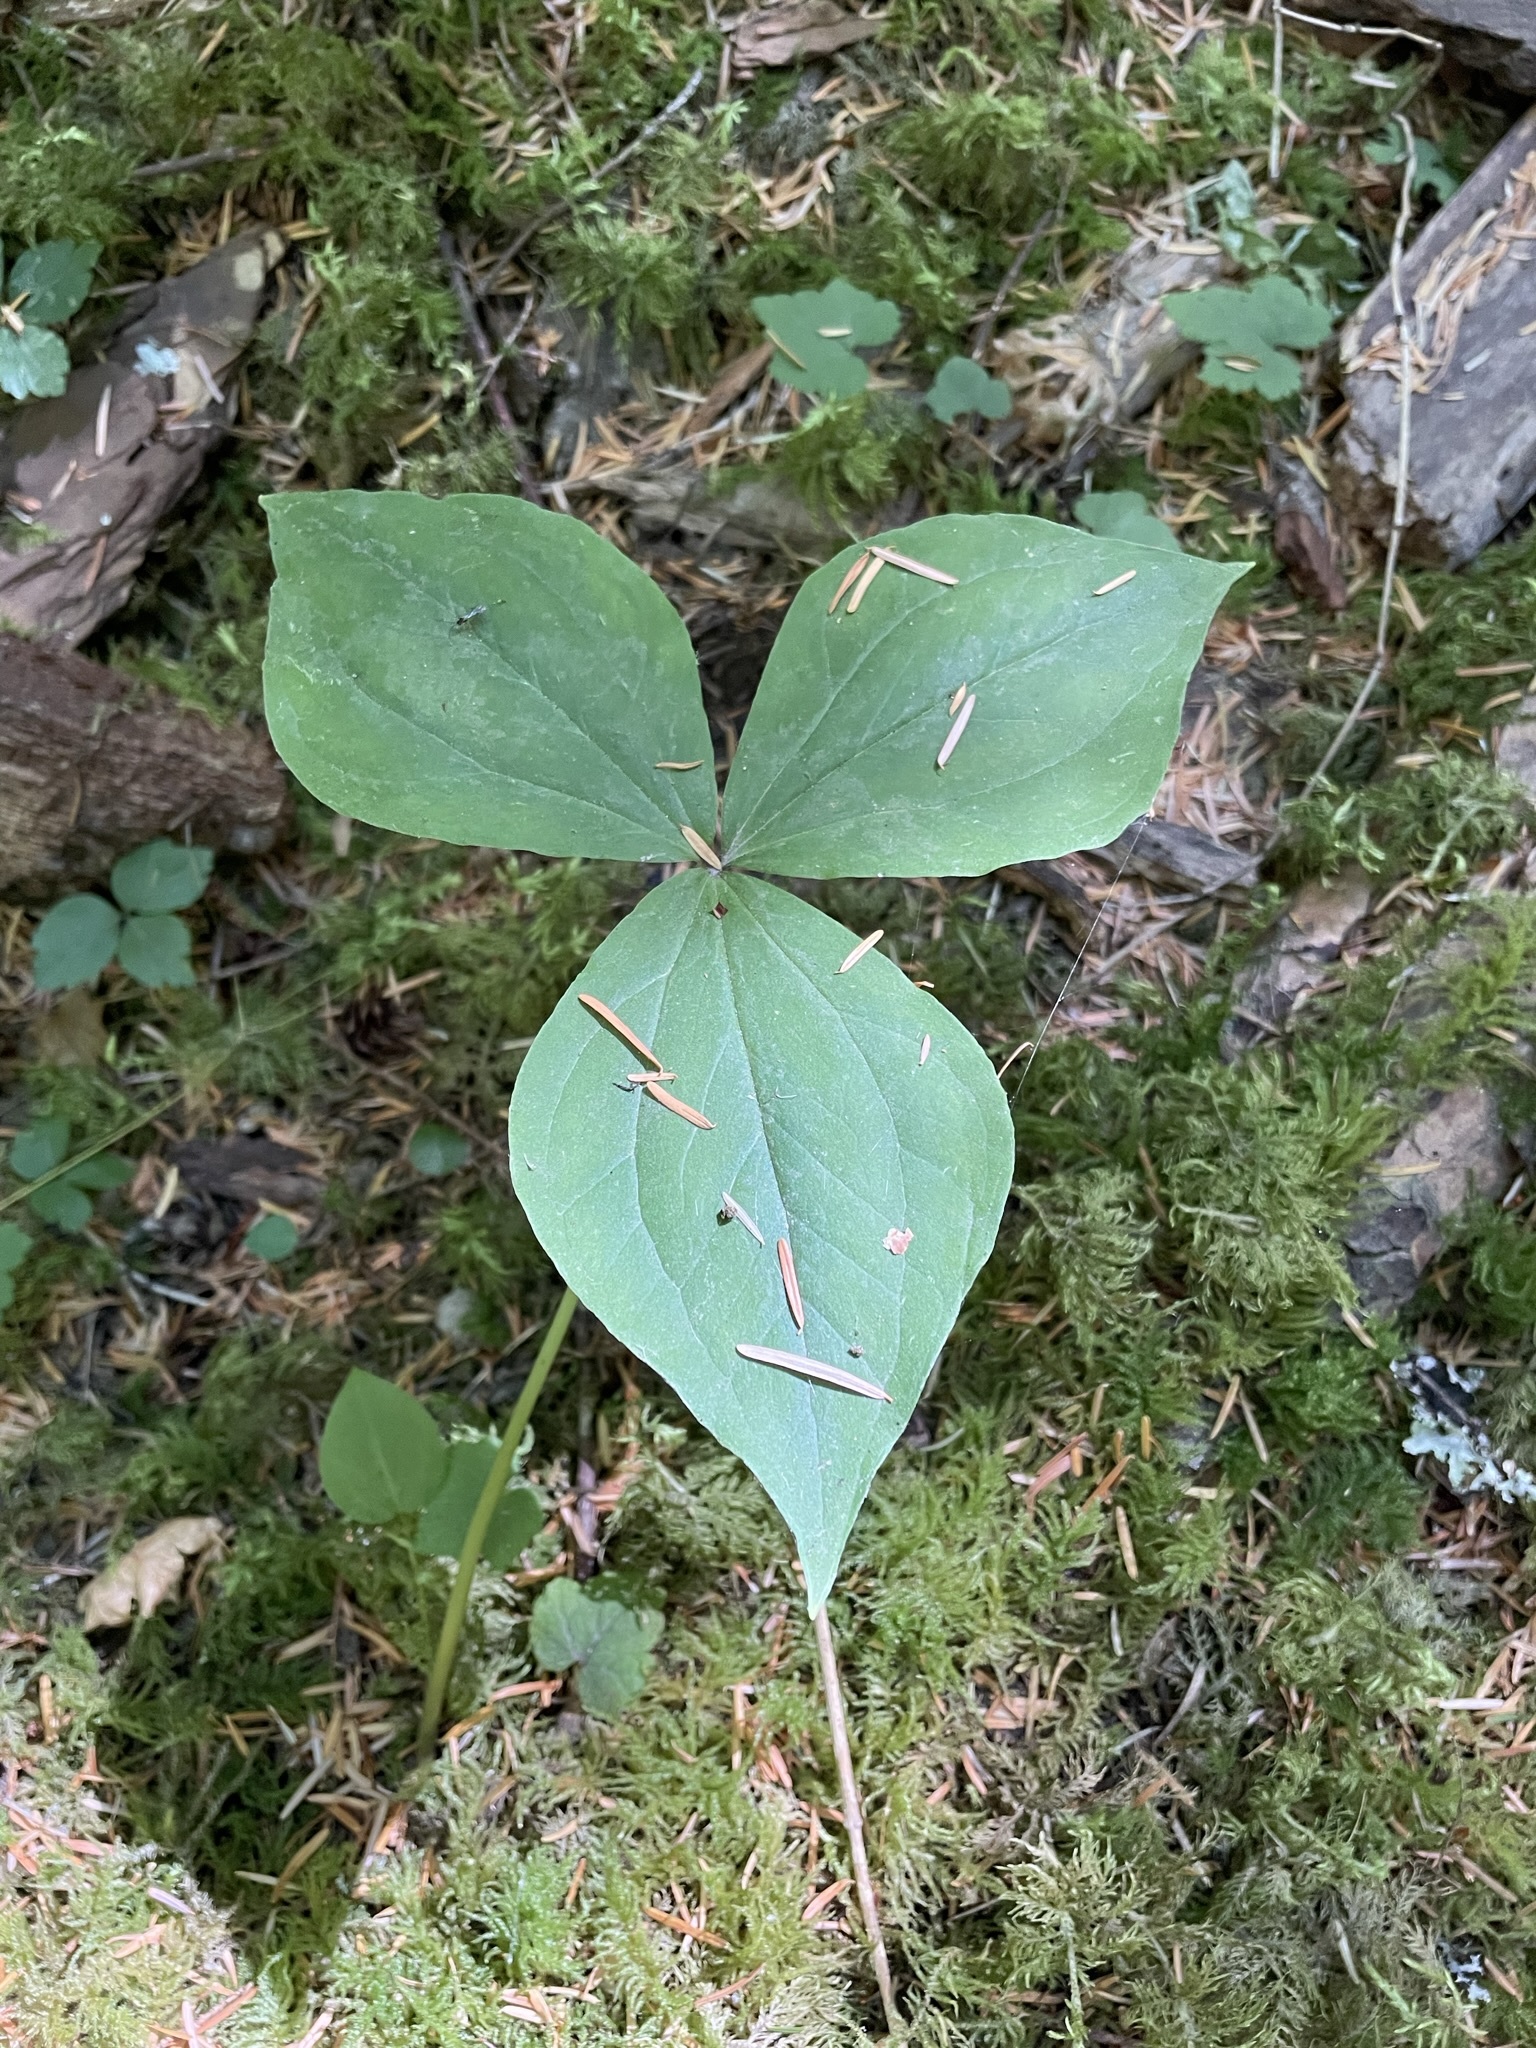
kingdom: Plantae
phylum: Tracheophyta
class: Liliopsida
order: Liliales
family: Melanthiaceae
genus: Trillium
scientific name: Trillium ovatum
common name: Pacific trillium
